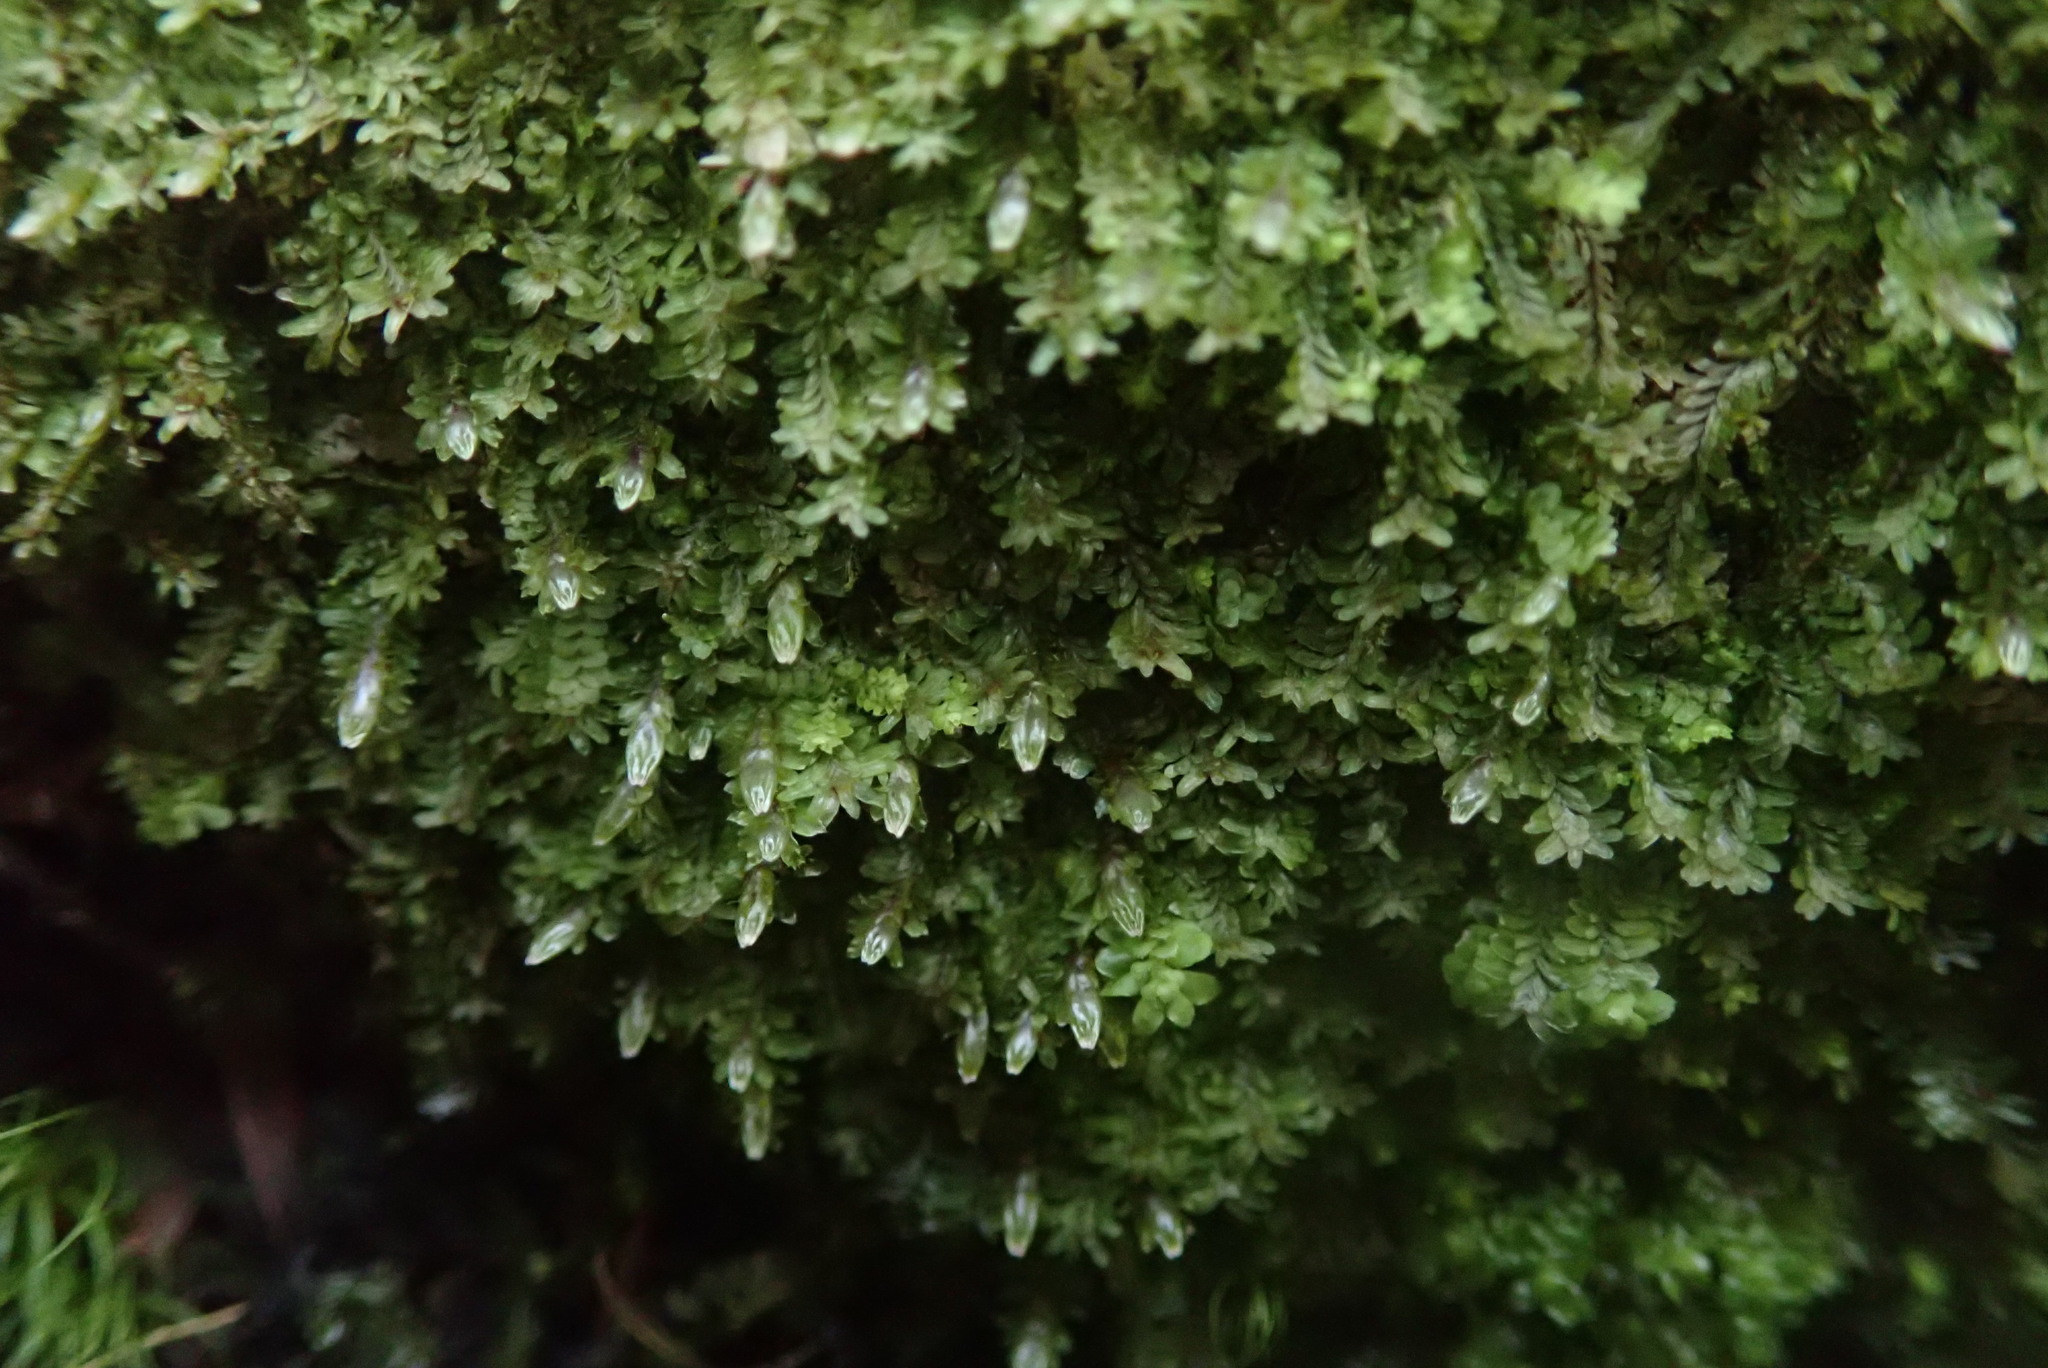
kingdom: Plantae
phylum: Marchantiophyta
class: Jungermanniopsida
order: Jungermanniales
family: Scapaniaceae
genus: Diplophyllum
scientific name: Diplophyllum albicans
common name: White earwort
